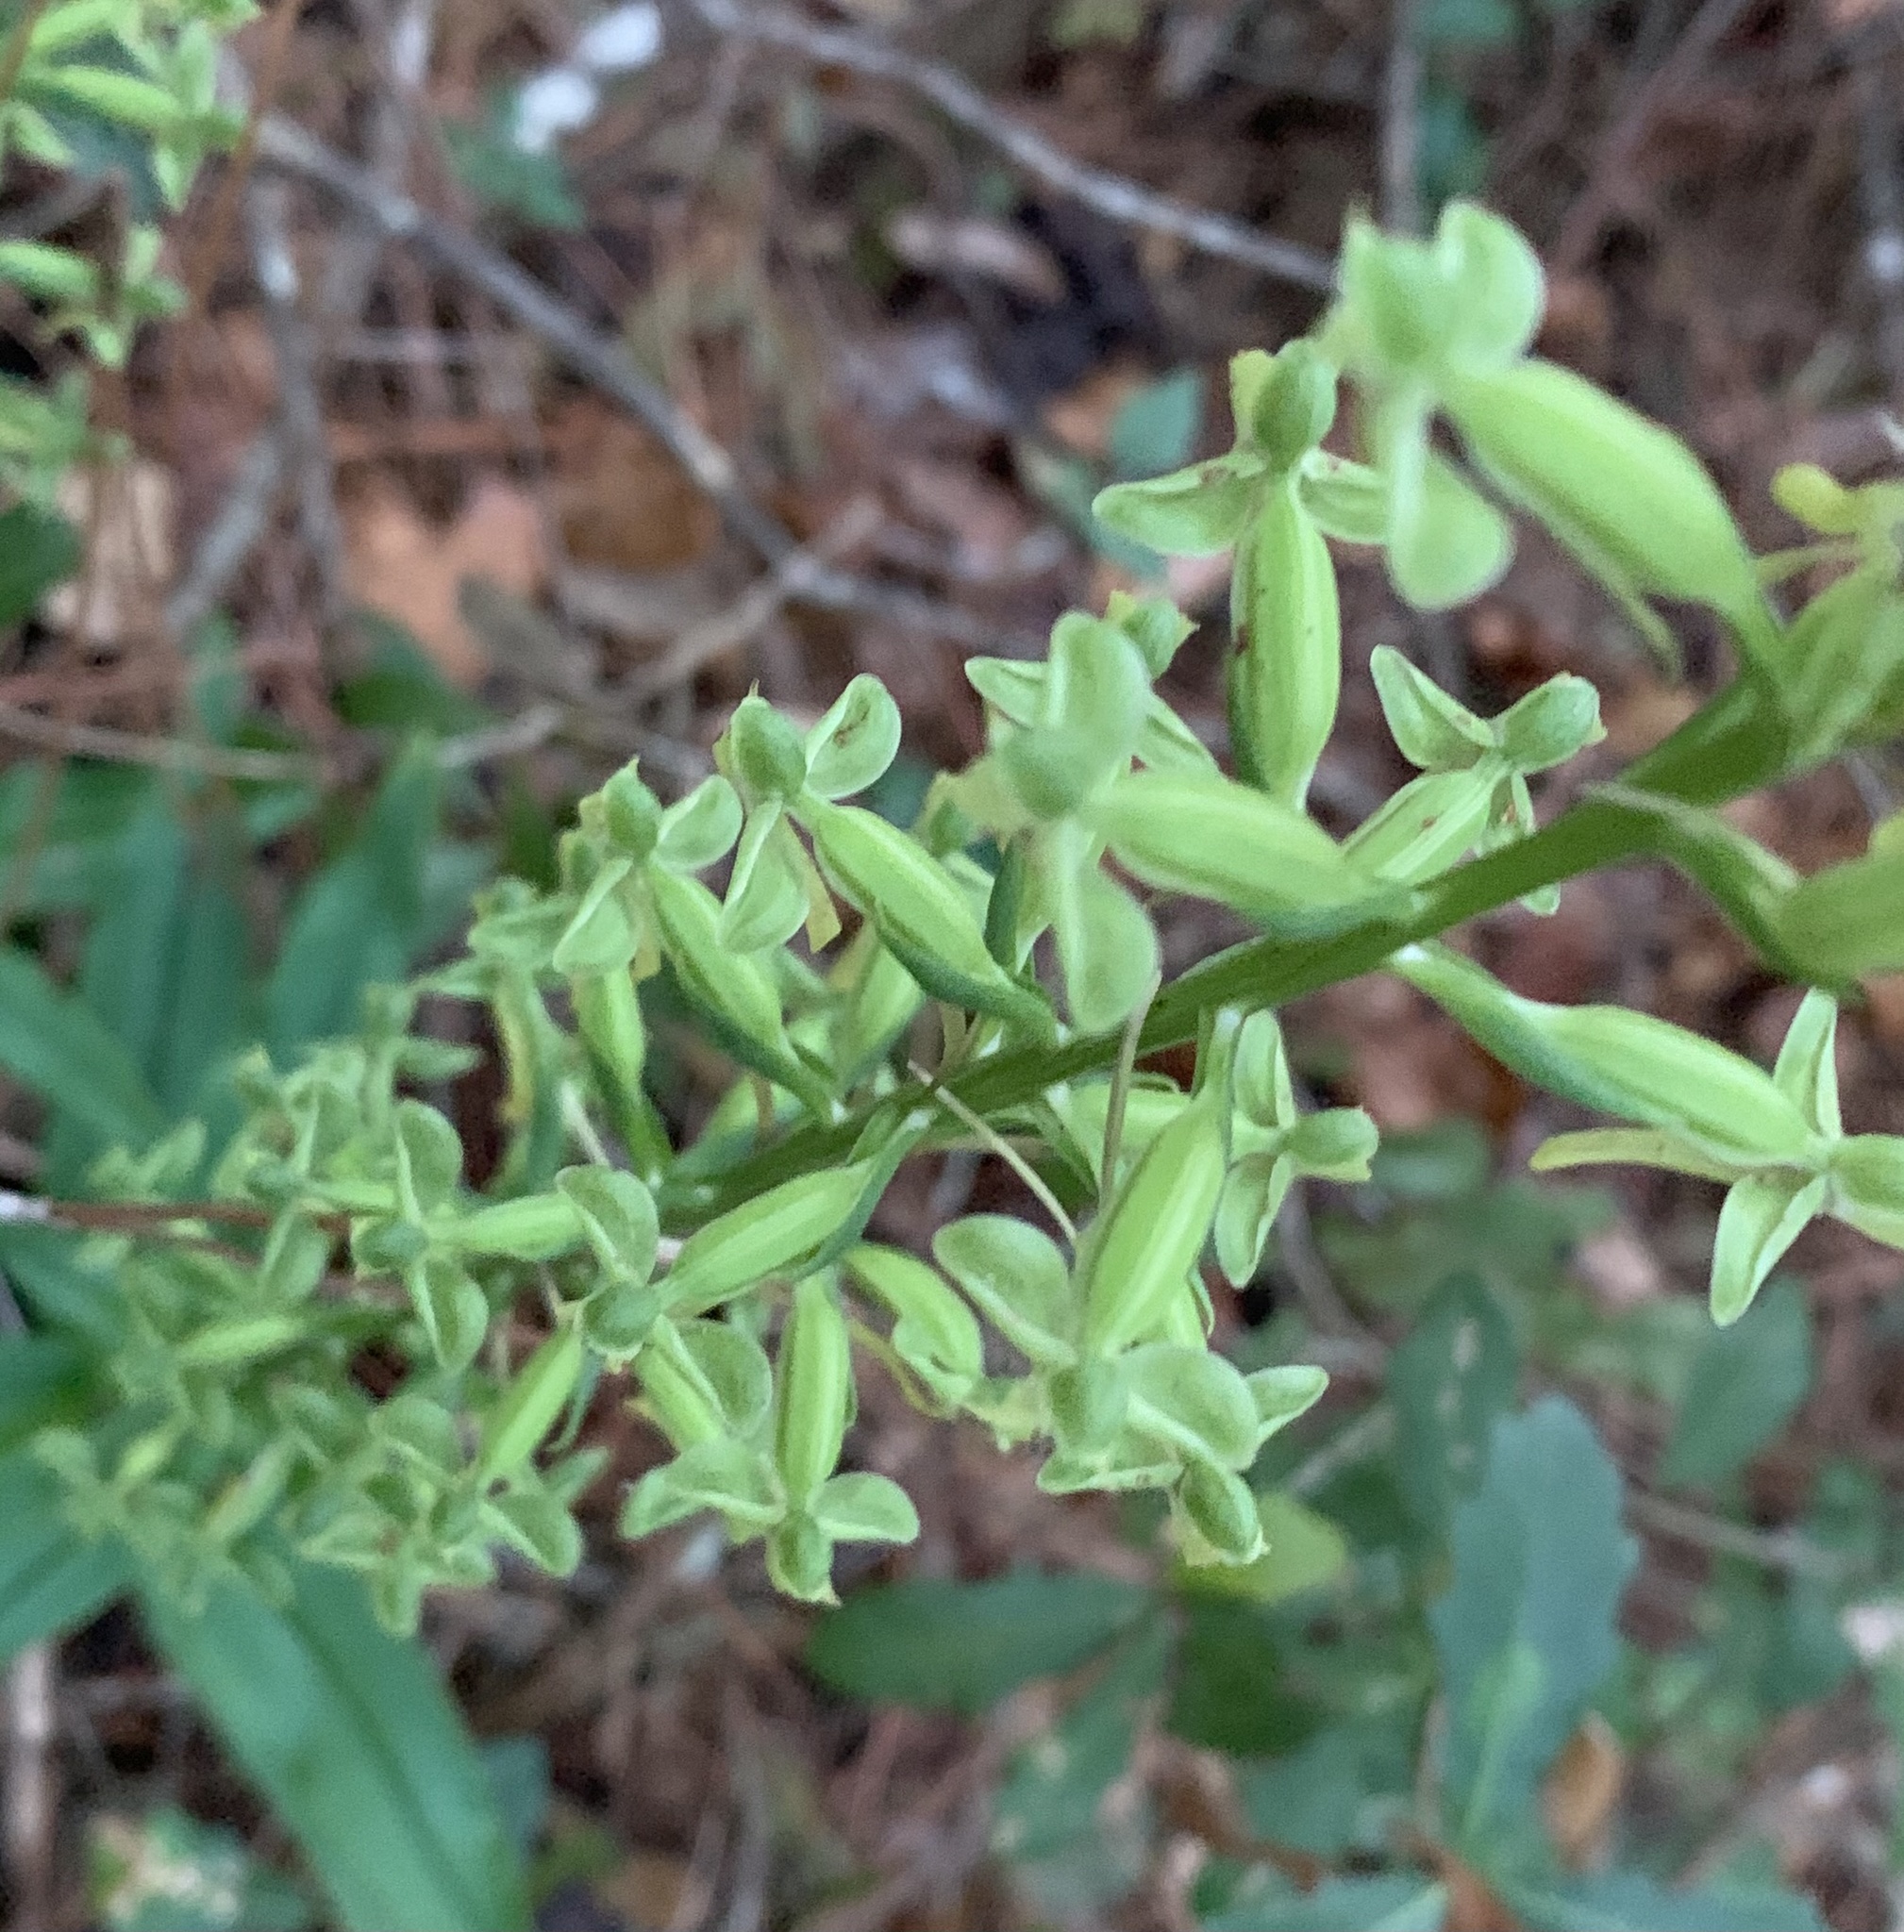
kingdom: Plantae
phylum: Tracheophyta
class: Liliopsida
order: Asparagales
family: Orchidaceae
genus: Habenaria
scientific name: Habenaria floribunda
